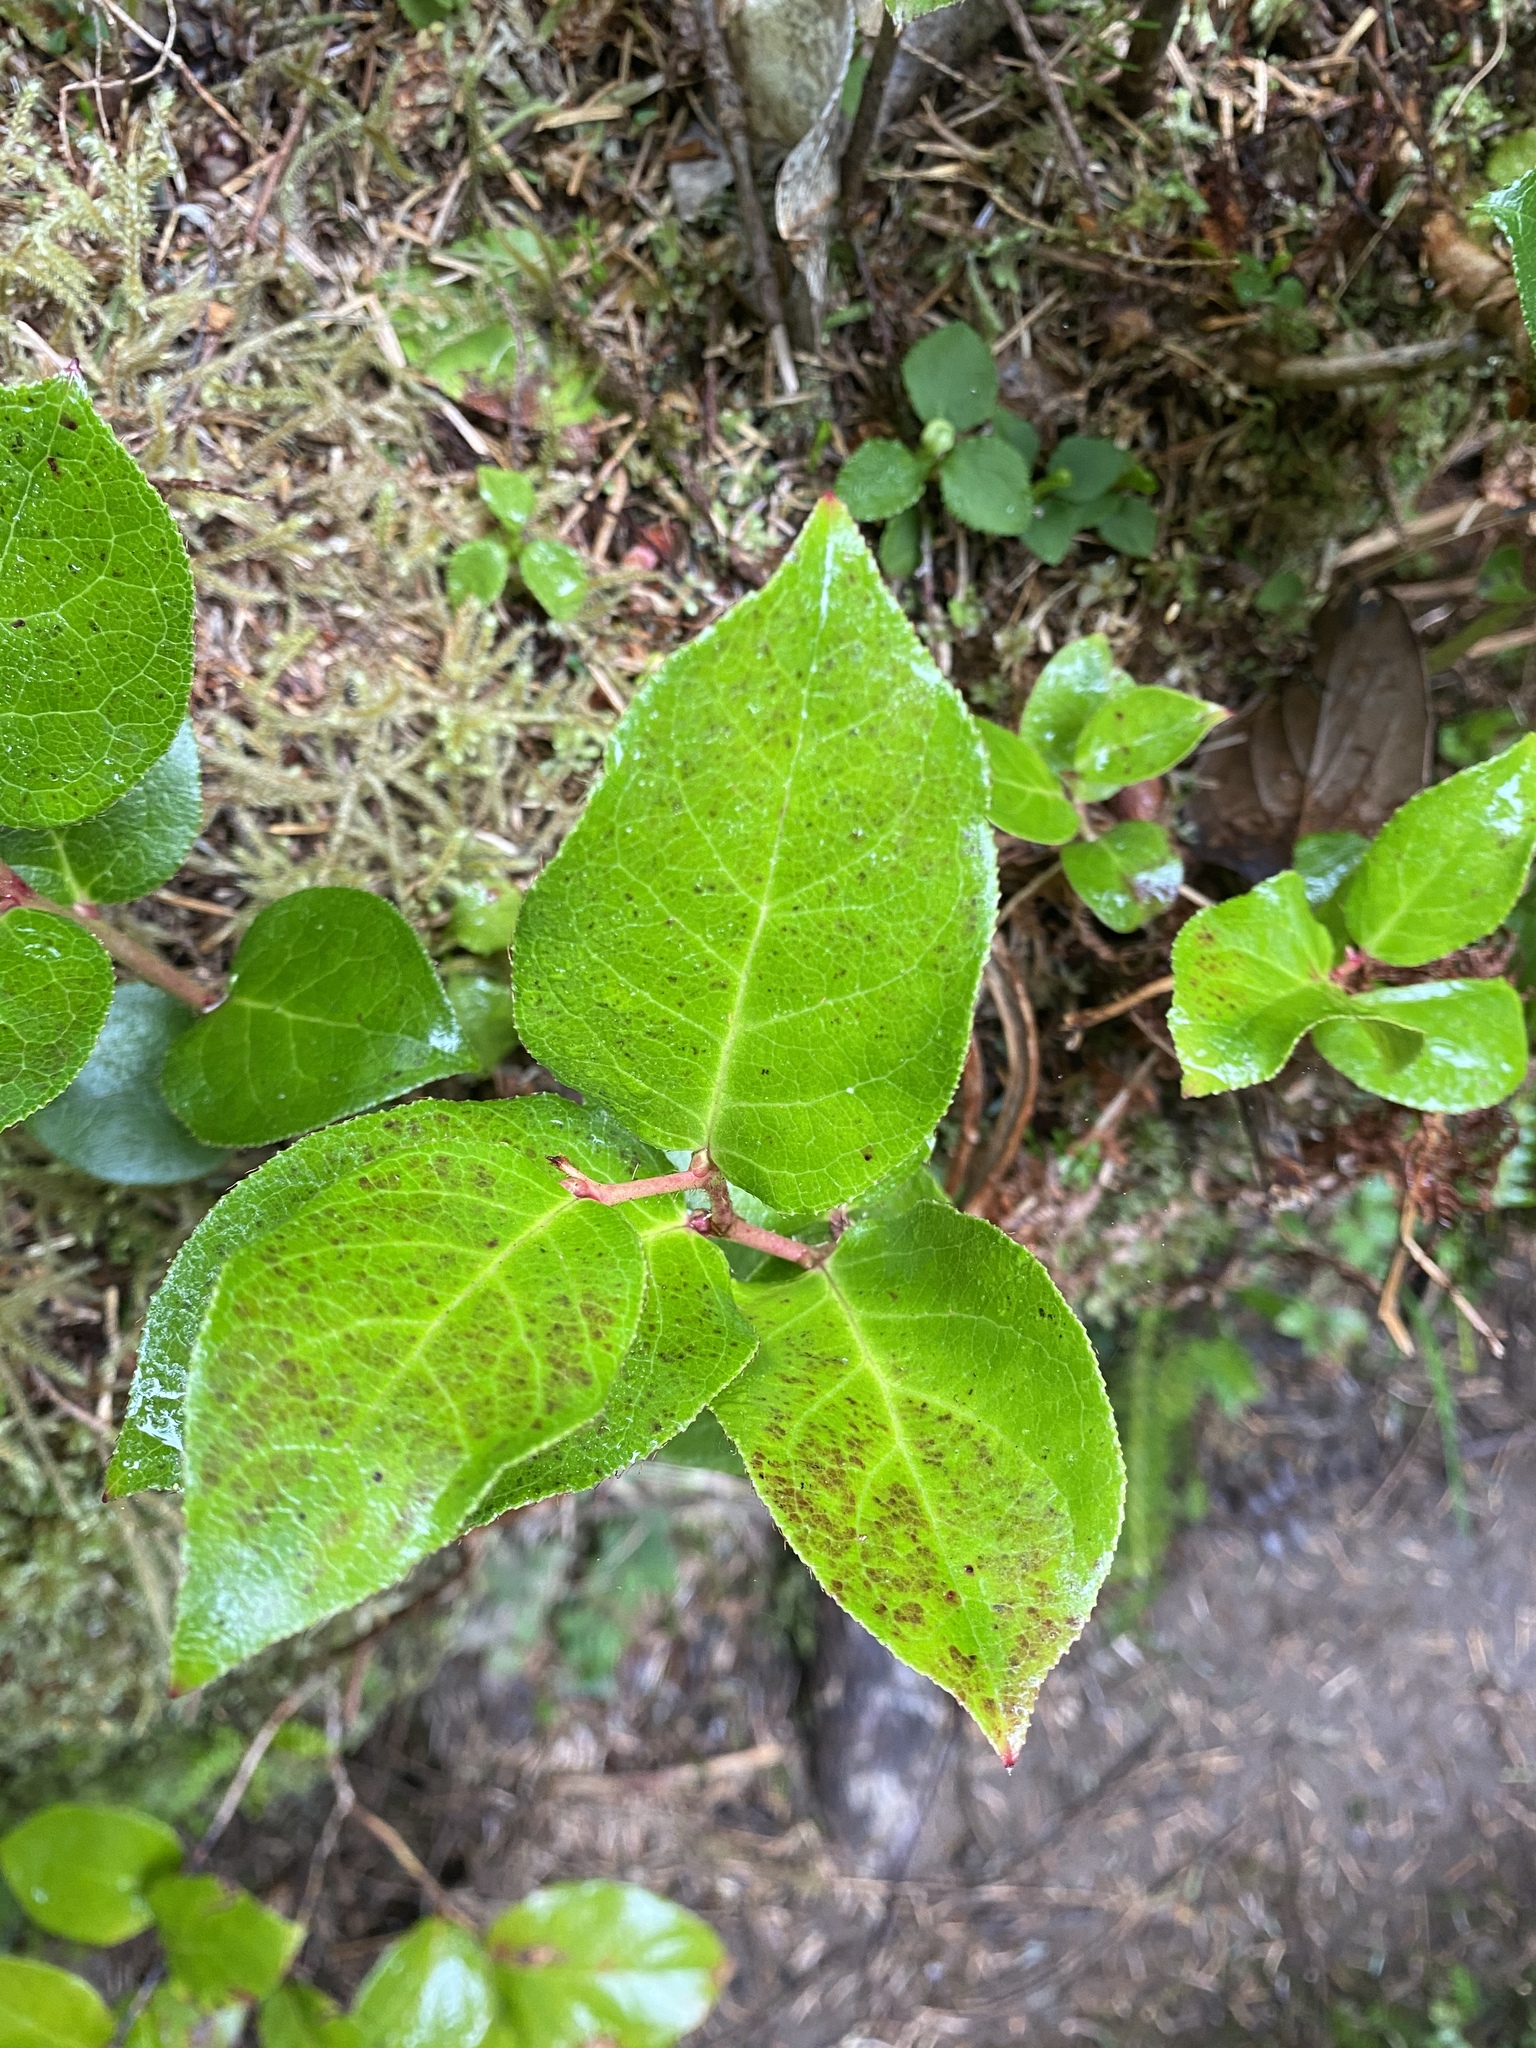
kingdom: Plantae
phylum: Tracheophyta
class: Magnoliopsida
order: Ericales
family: Ericaceae
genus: Gaultheria
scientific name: Gaultheria shallon
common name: Shallon
